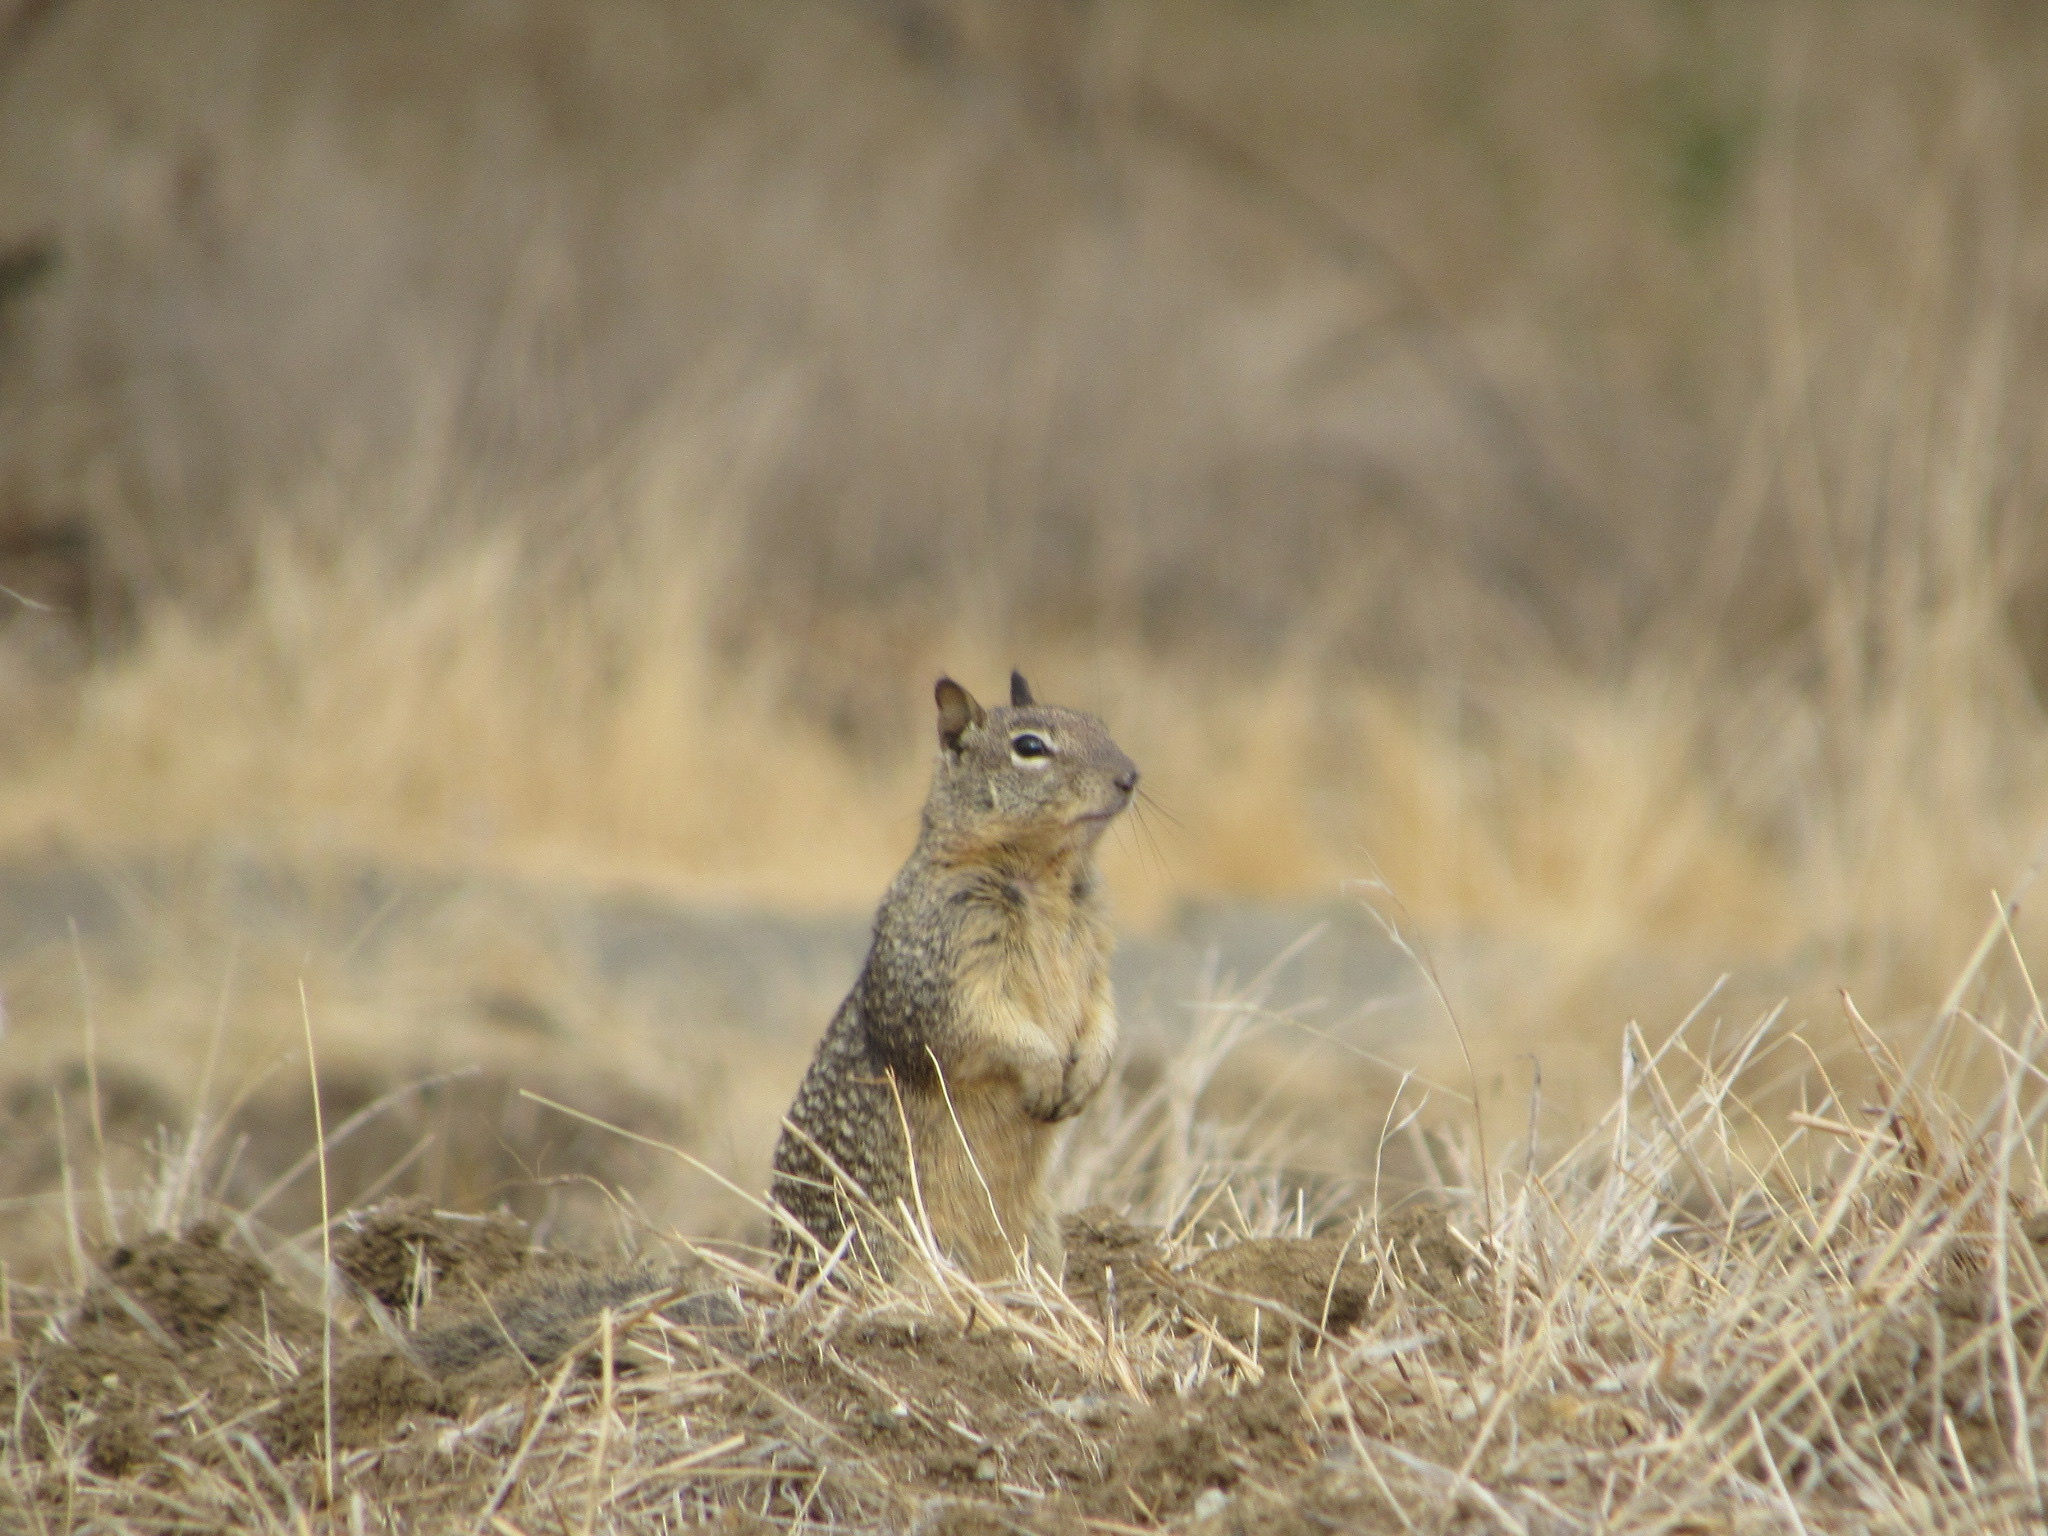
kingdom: Animalia
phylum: Chordata
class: Mammalia
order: Rodentia
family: Sciuridae
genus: Otospermophilus
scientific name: Otospermophilus beecheyi
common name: California ground squirrel
